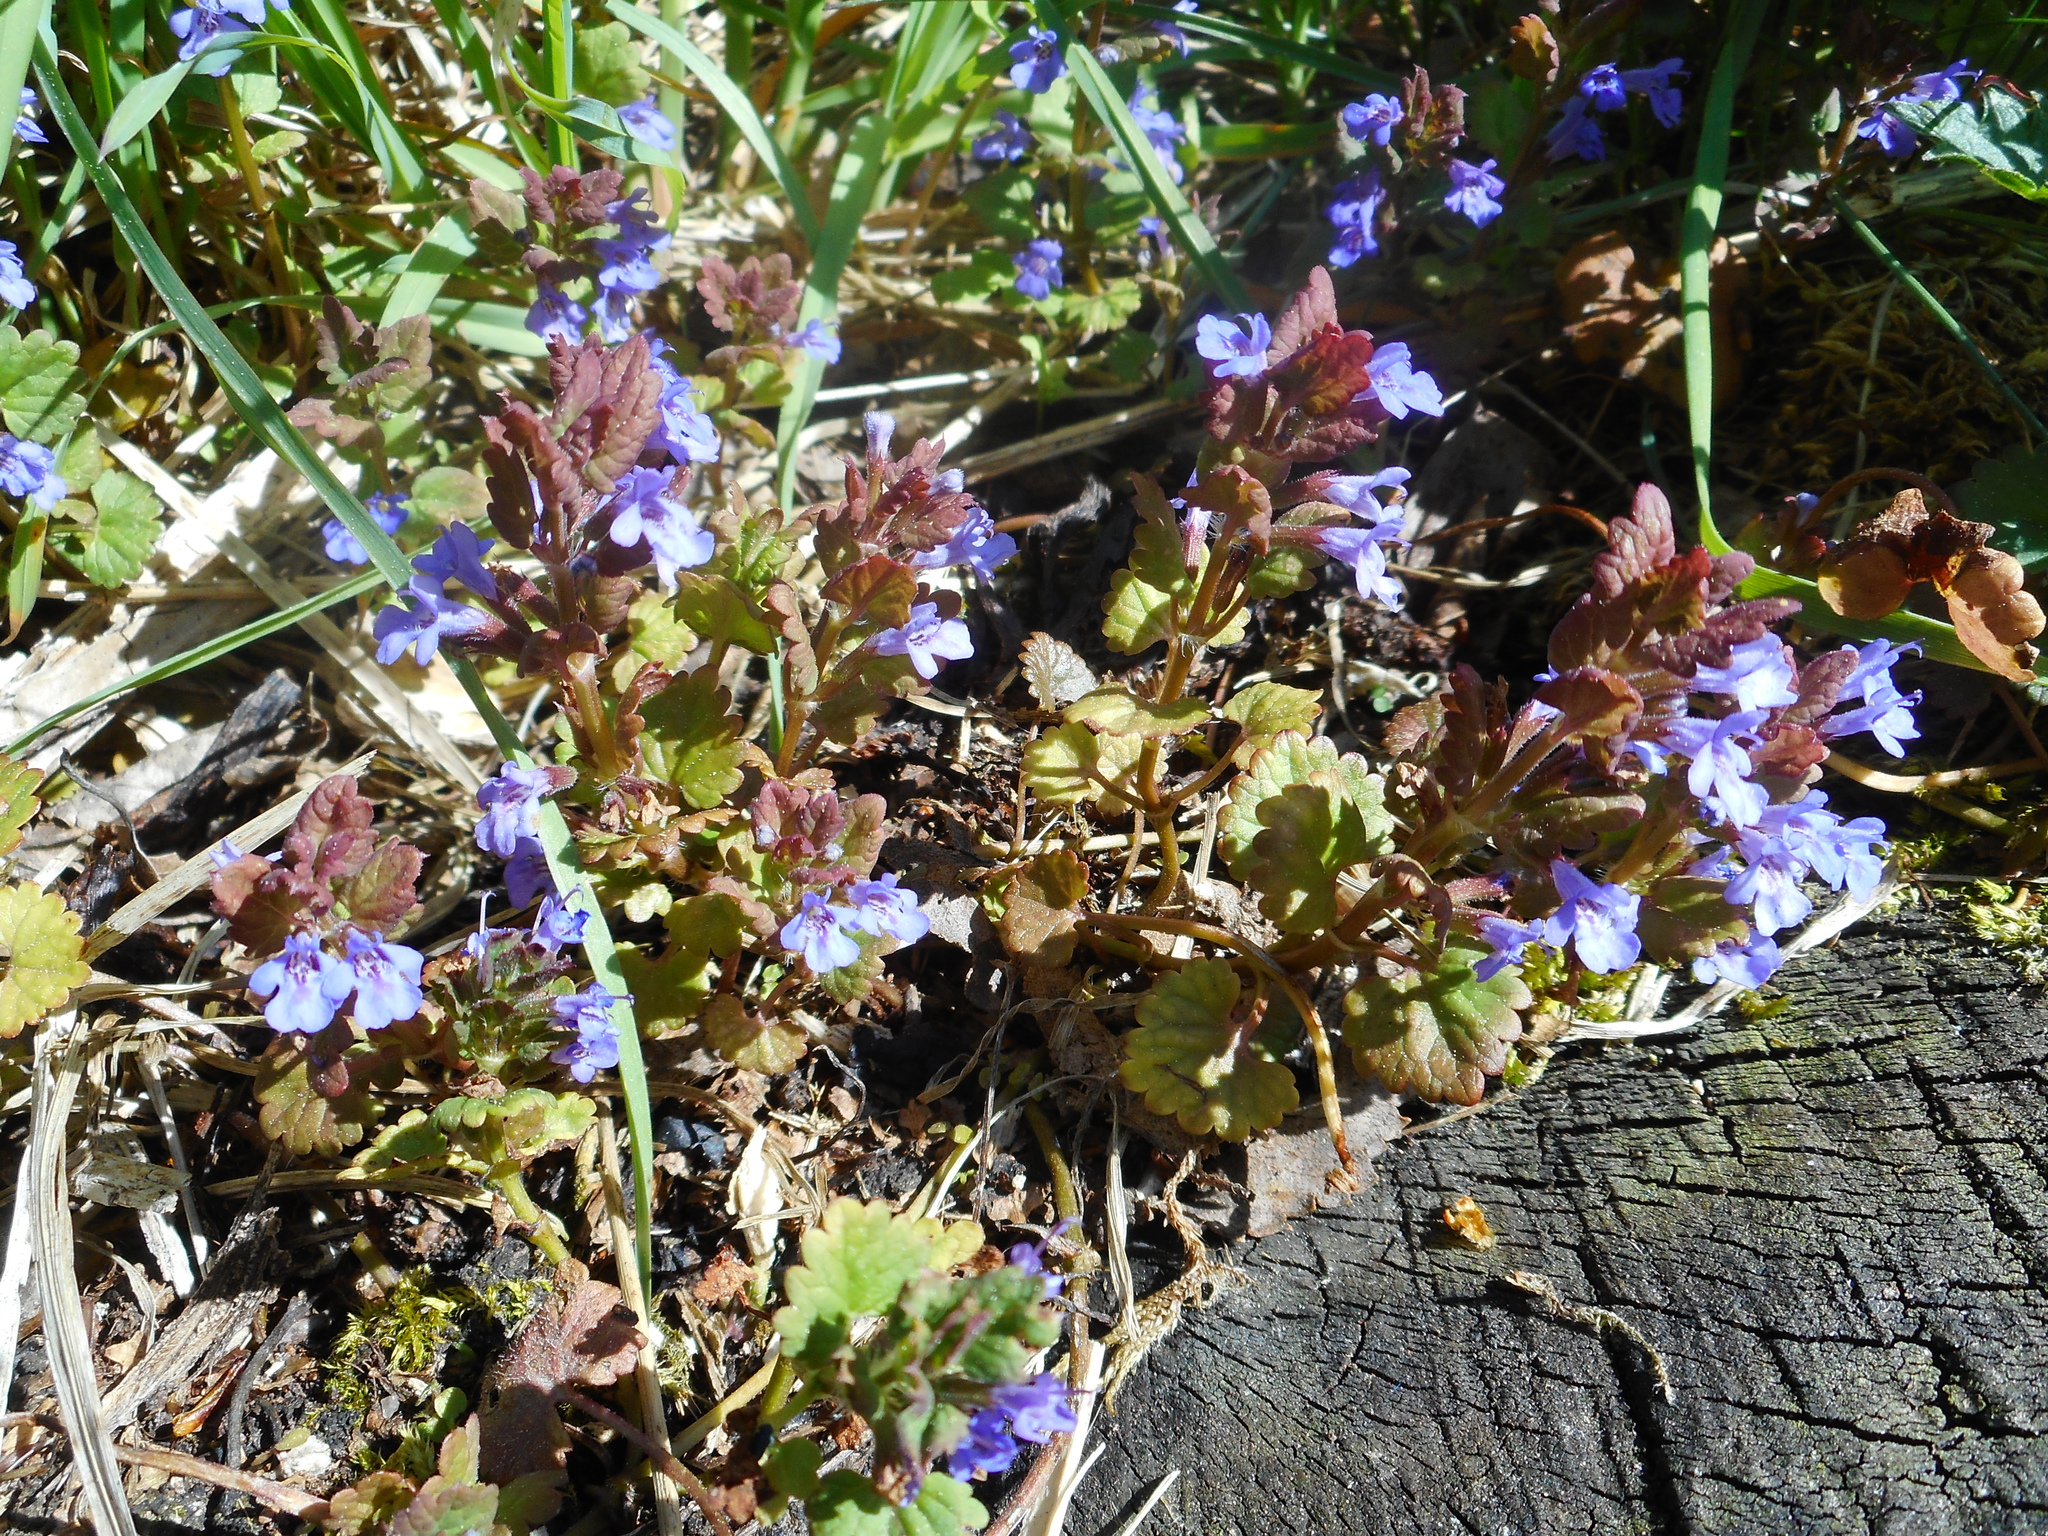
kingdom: Plantae
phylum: Tracheophyta
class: Magnoliopsida
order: Lamiales
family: Lamiaceae
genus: Glechoma
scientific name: Glechoma hederacea
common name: Ground ivy
